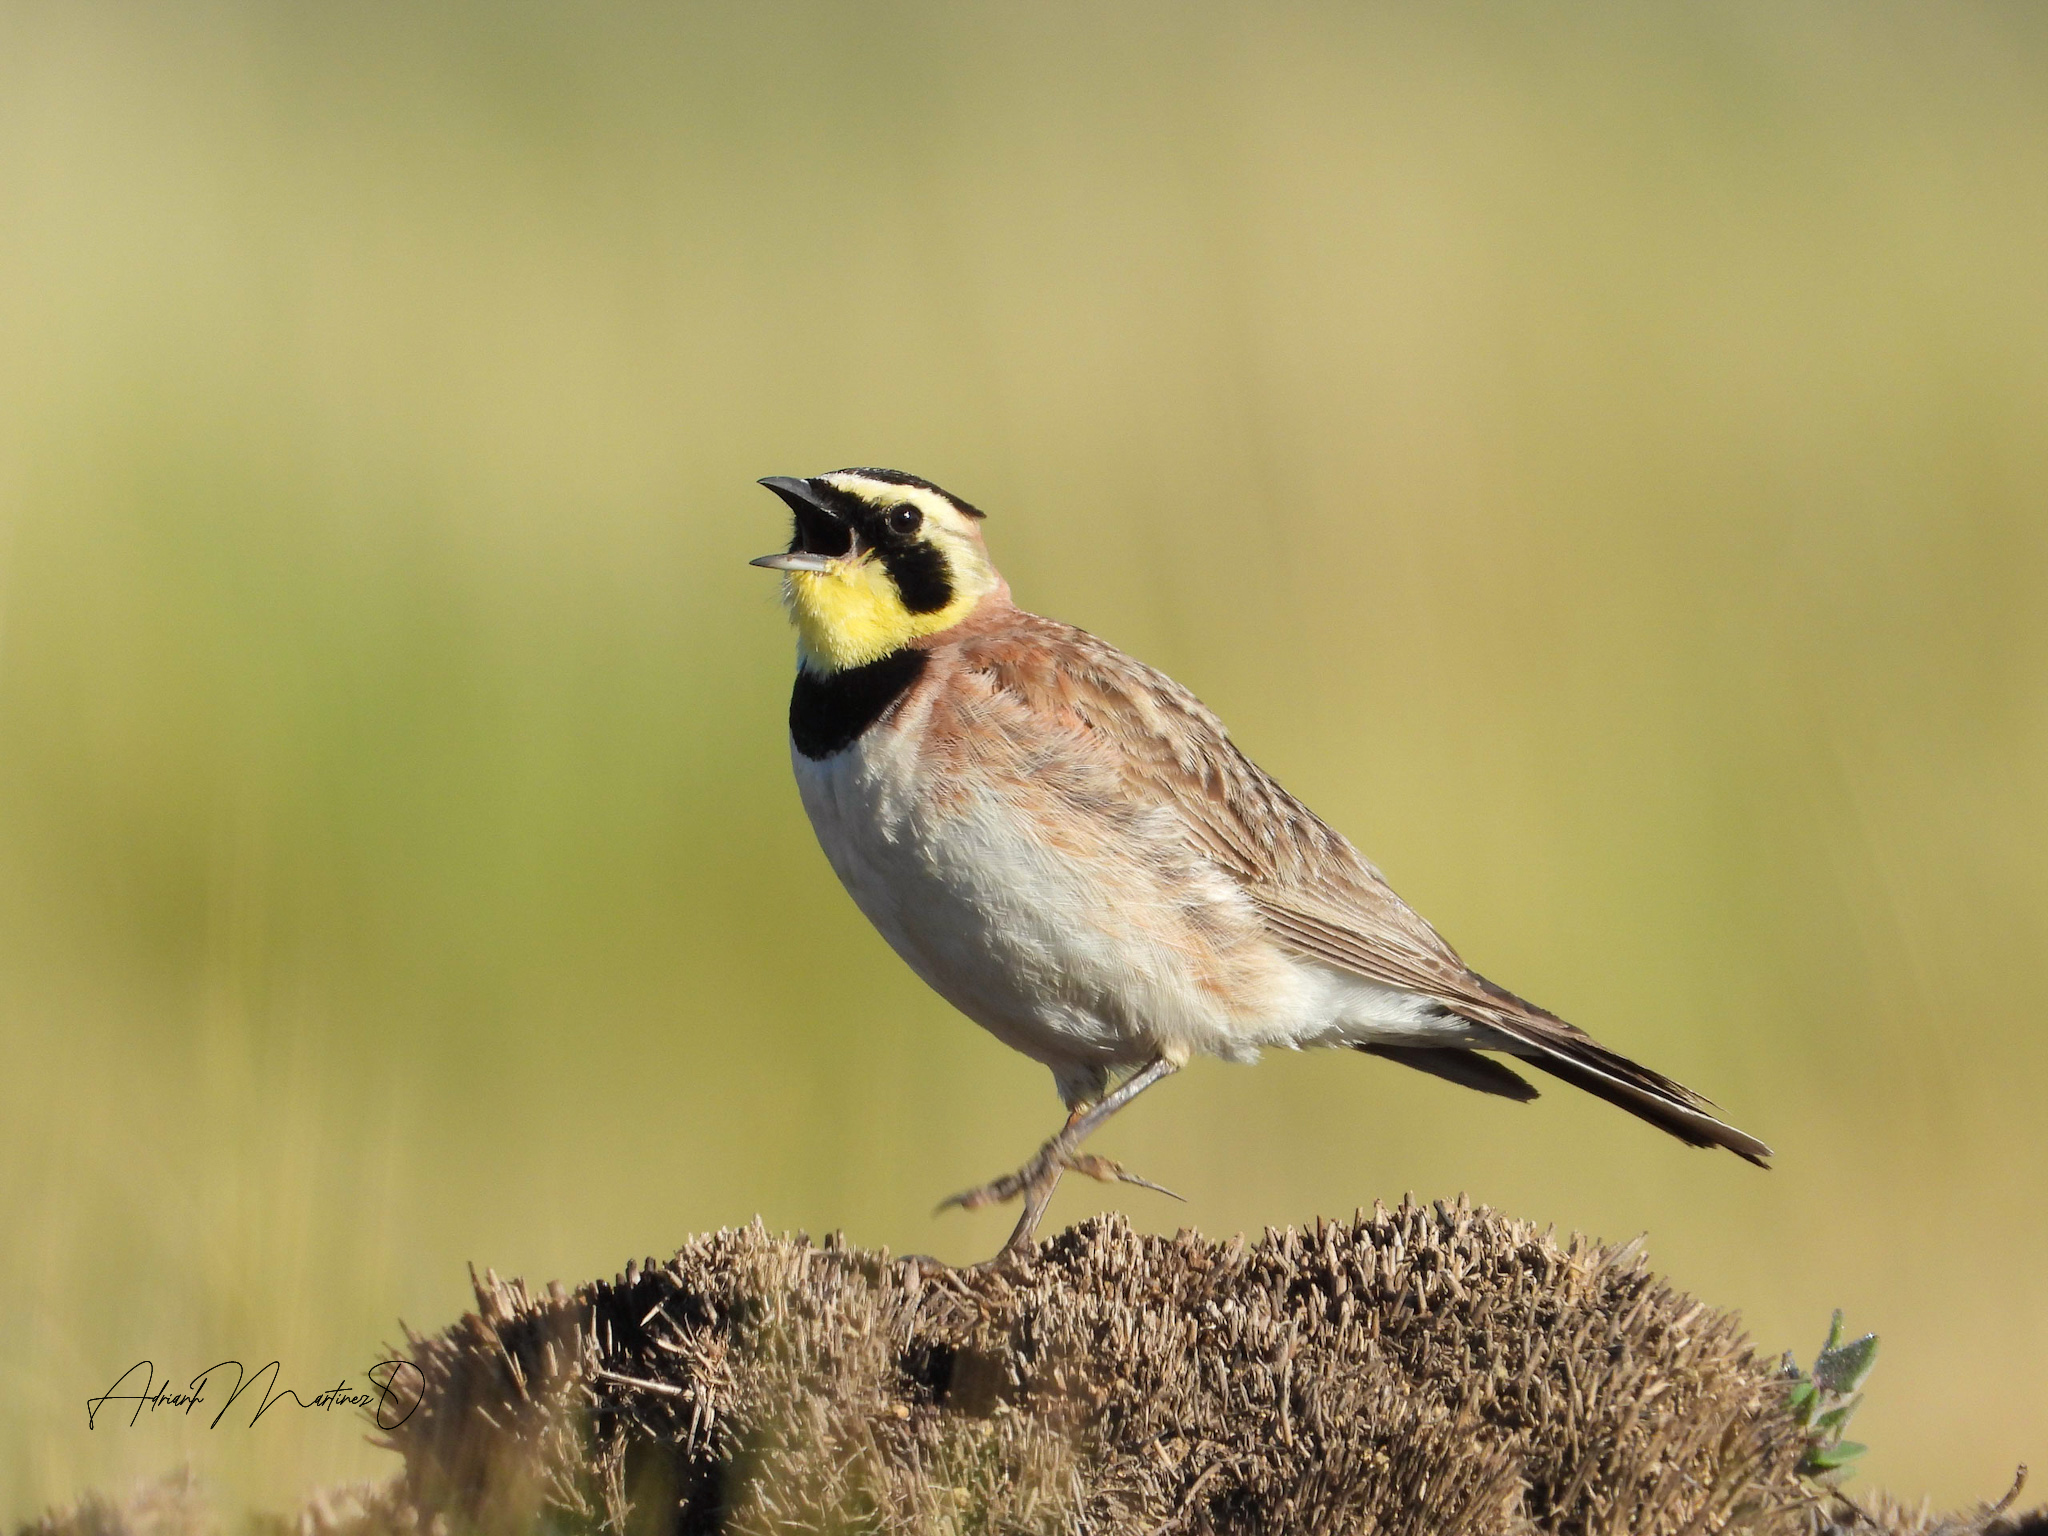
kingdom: Animalia
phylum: Chordata
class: Aves
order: Passeriformes
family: Alaudidae
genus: Eremophila
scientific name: Eremophila alpestris
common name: Horned lark
